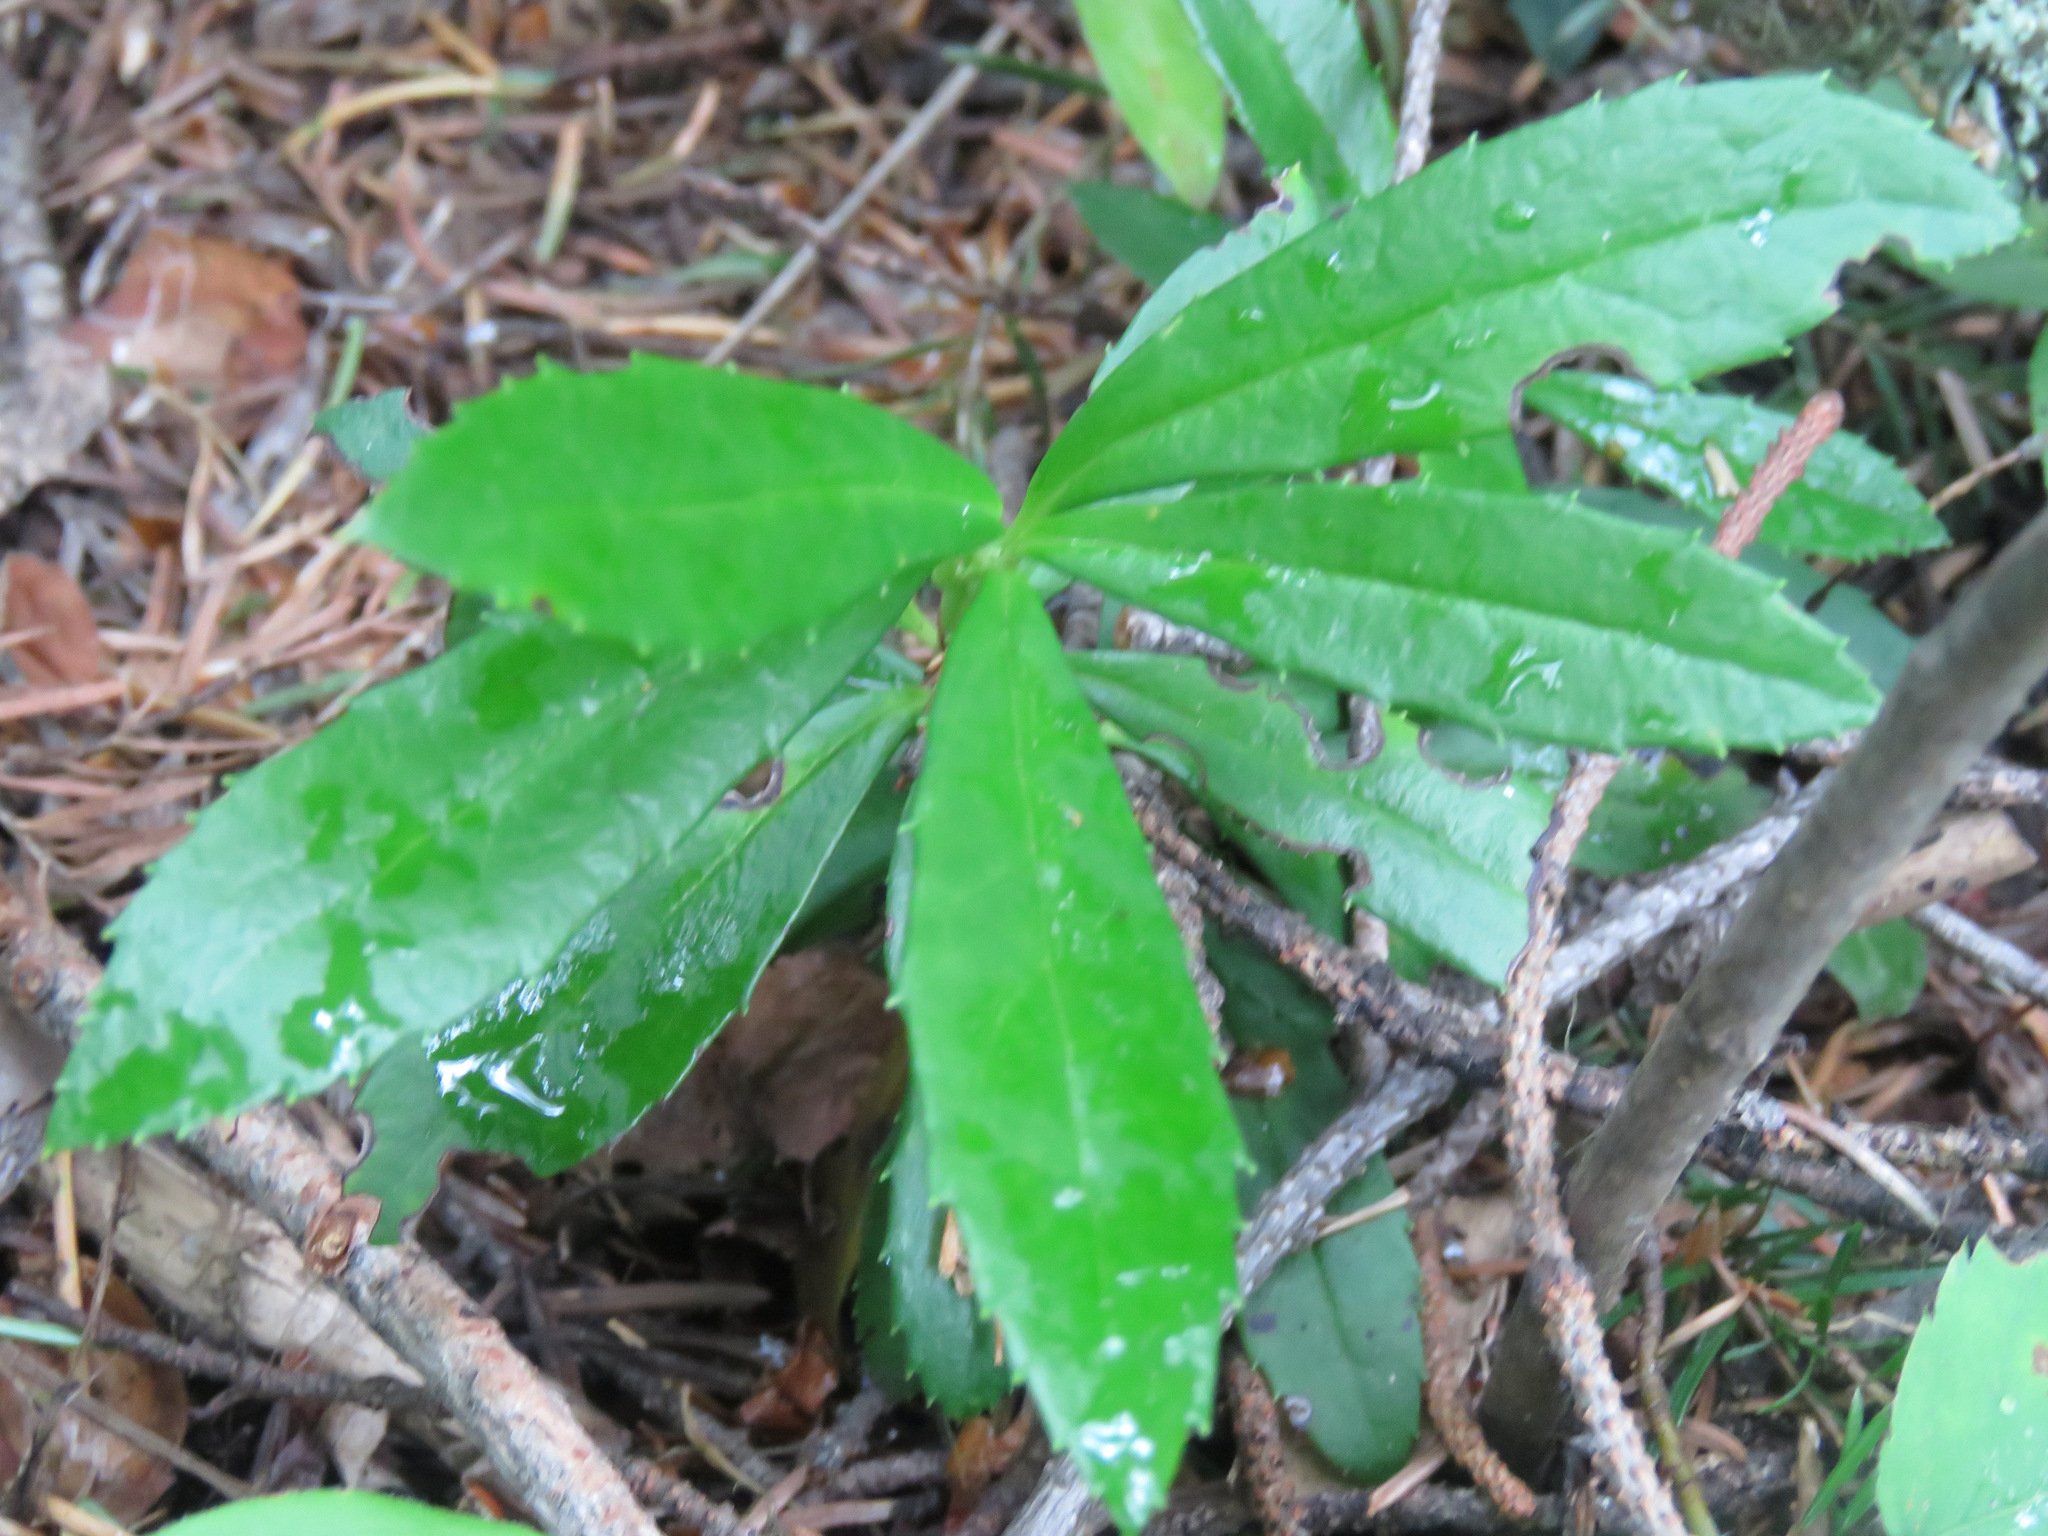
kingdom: Plantae
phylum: Tracheophyta
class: Magnoliopsida
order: Ericales
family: Ericaceae
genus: Chimaphila
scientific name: Chimaphila umbellata
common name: Pipsissewa
